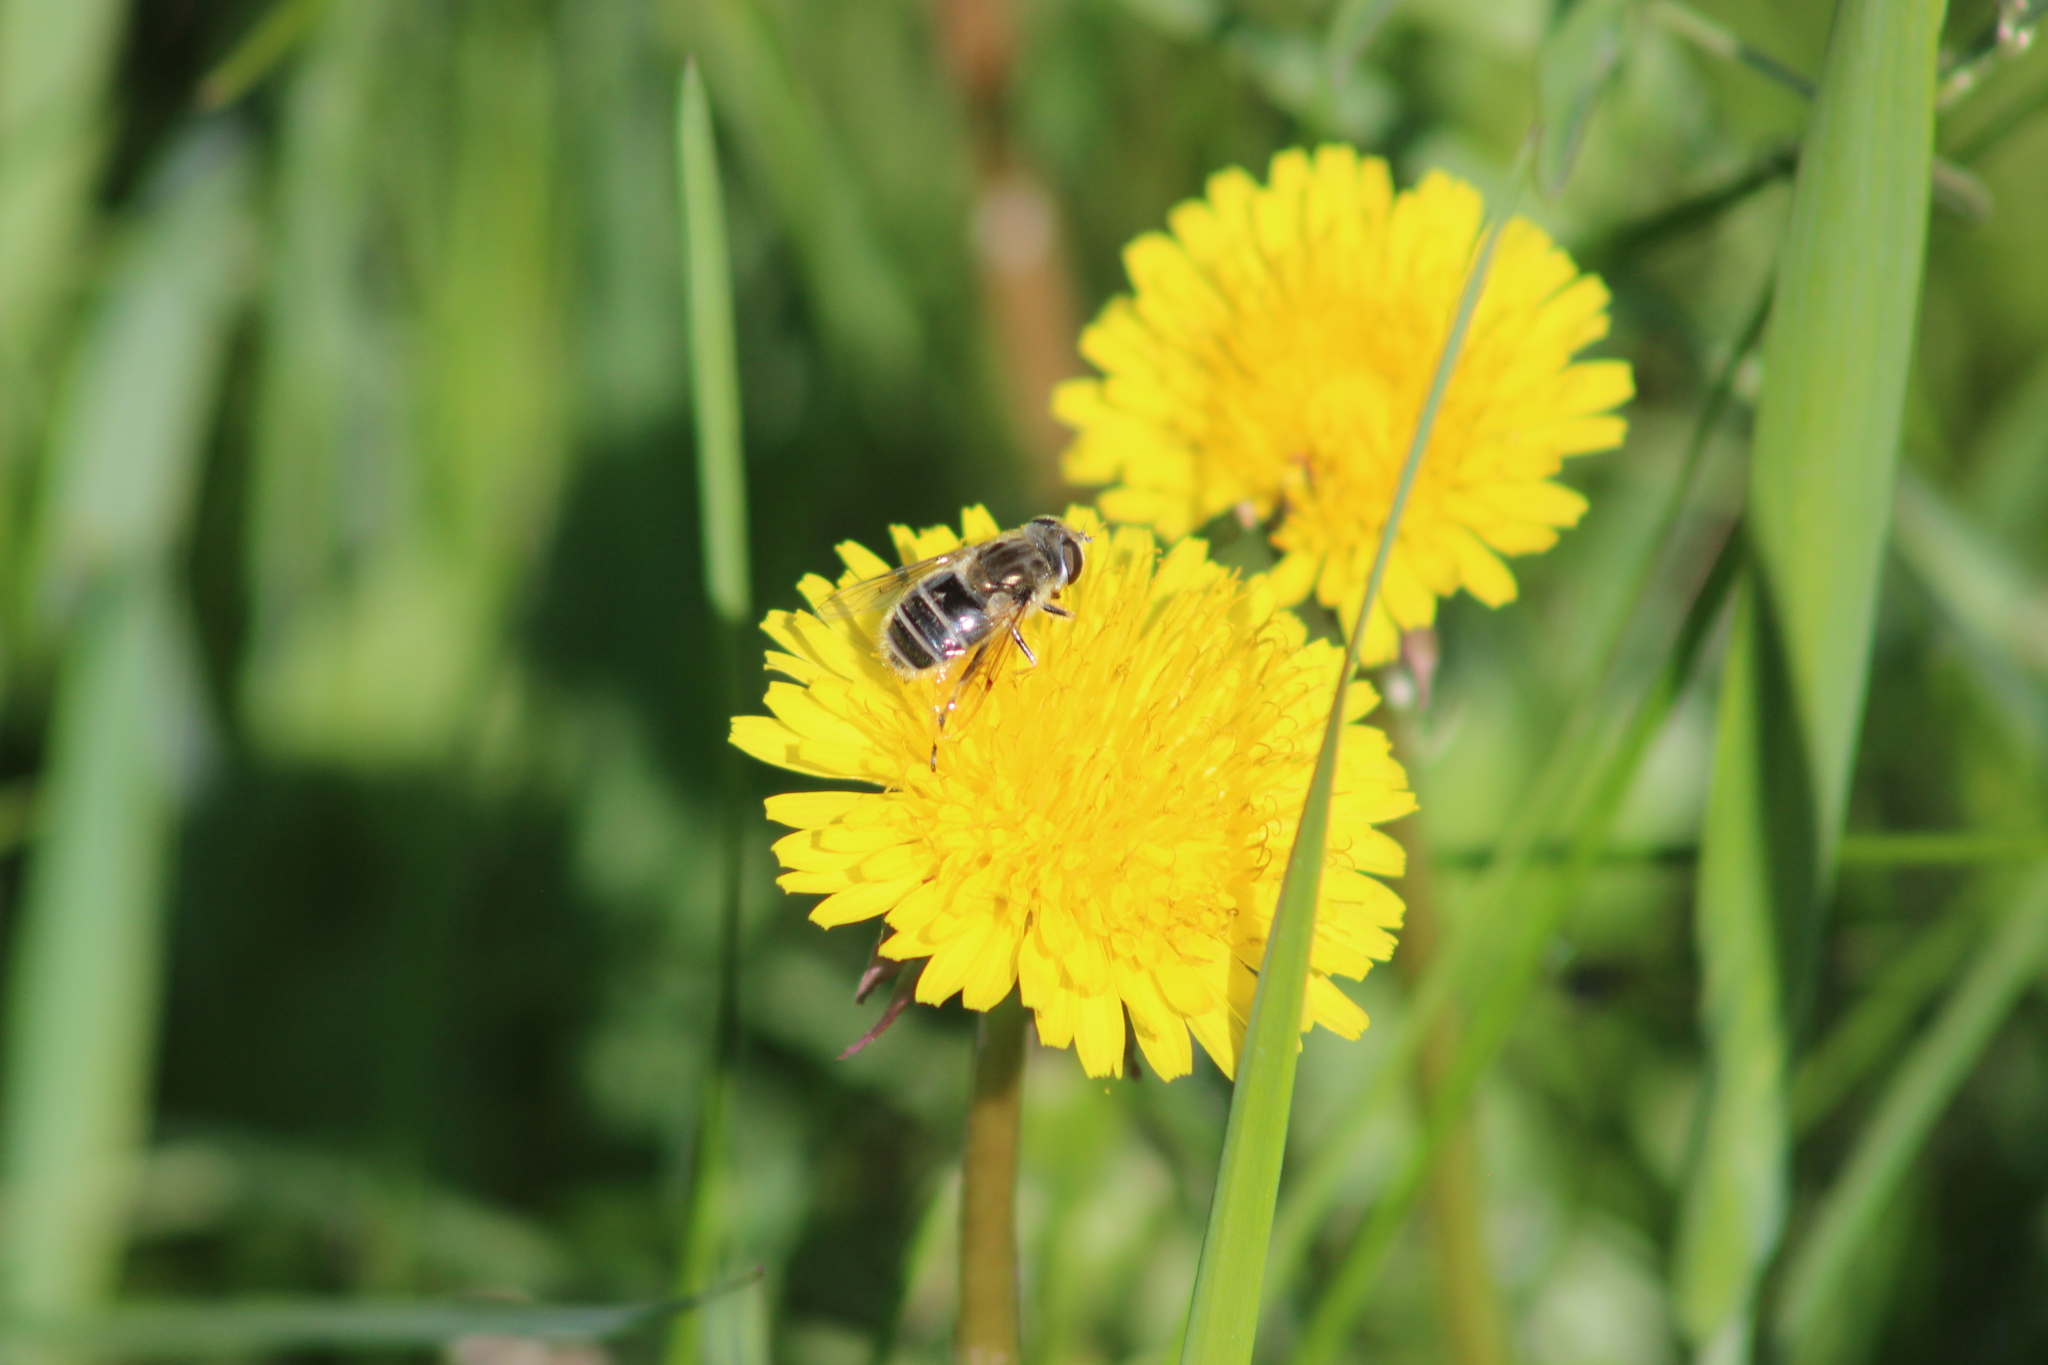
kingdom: Animalia
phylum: Arthropoda
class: Insecta
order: Diptera
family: Syrphidae
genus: Eristalis
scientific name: Eristalis arbustorum
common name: Hover fly
